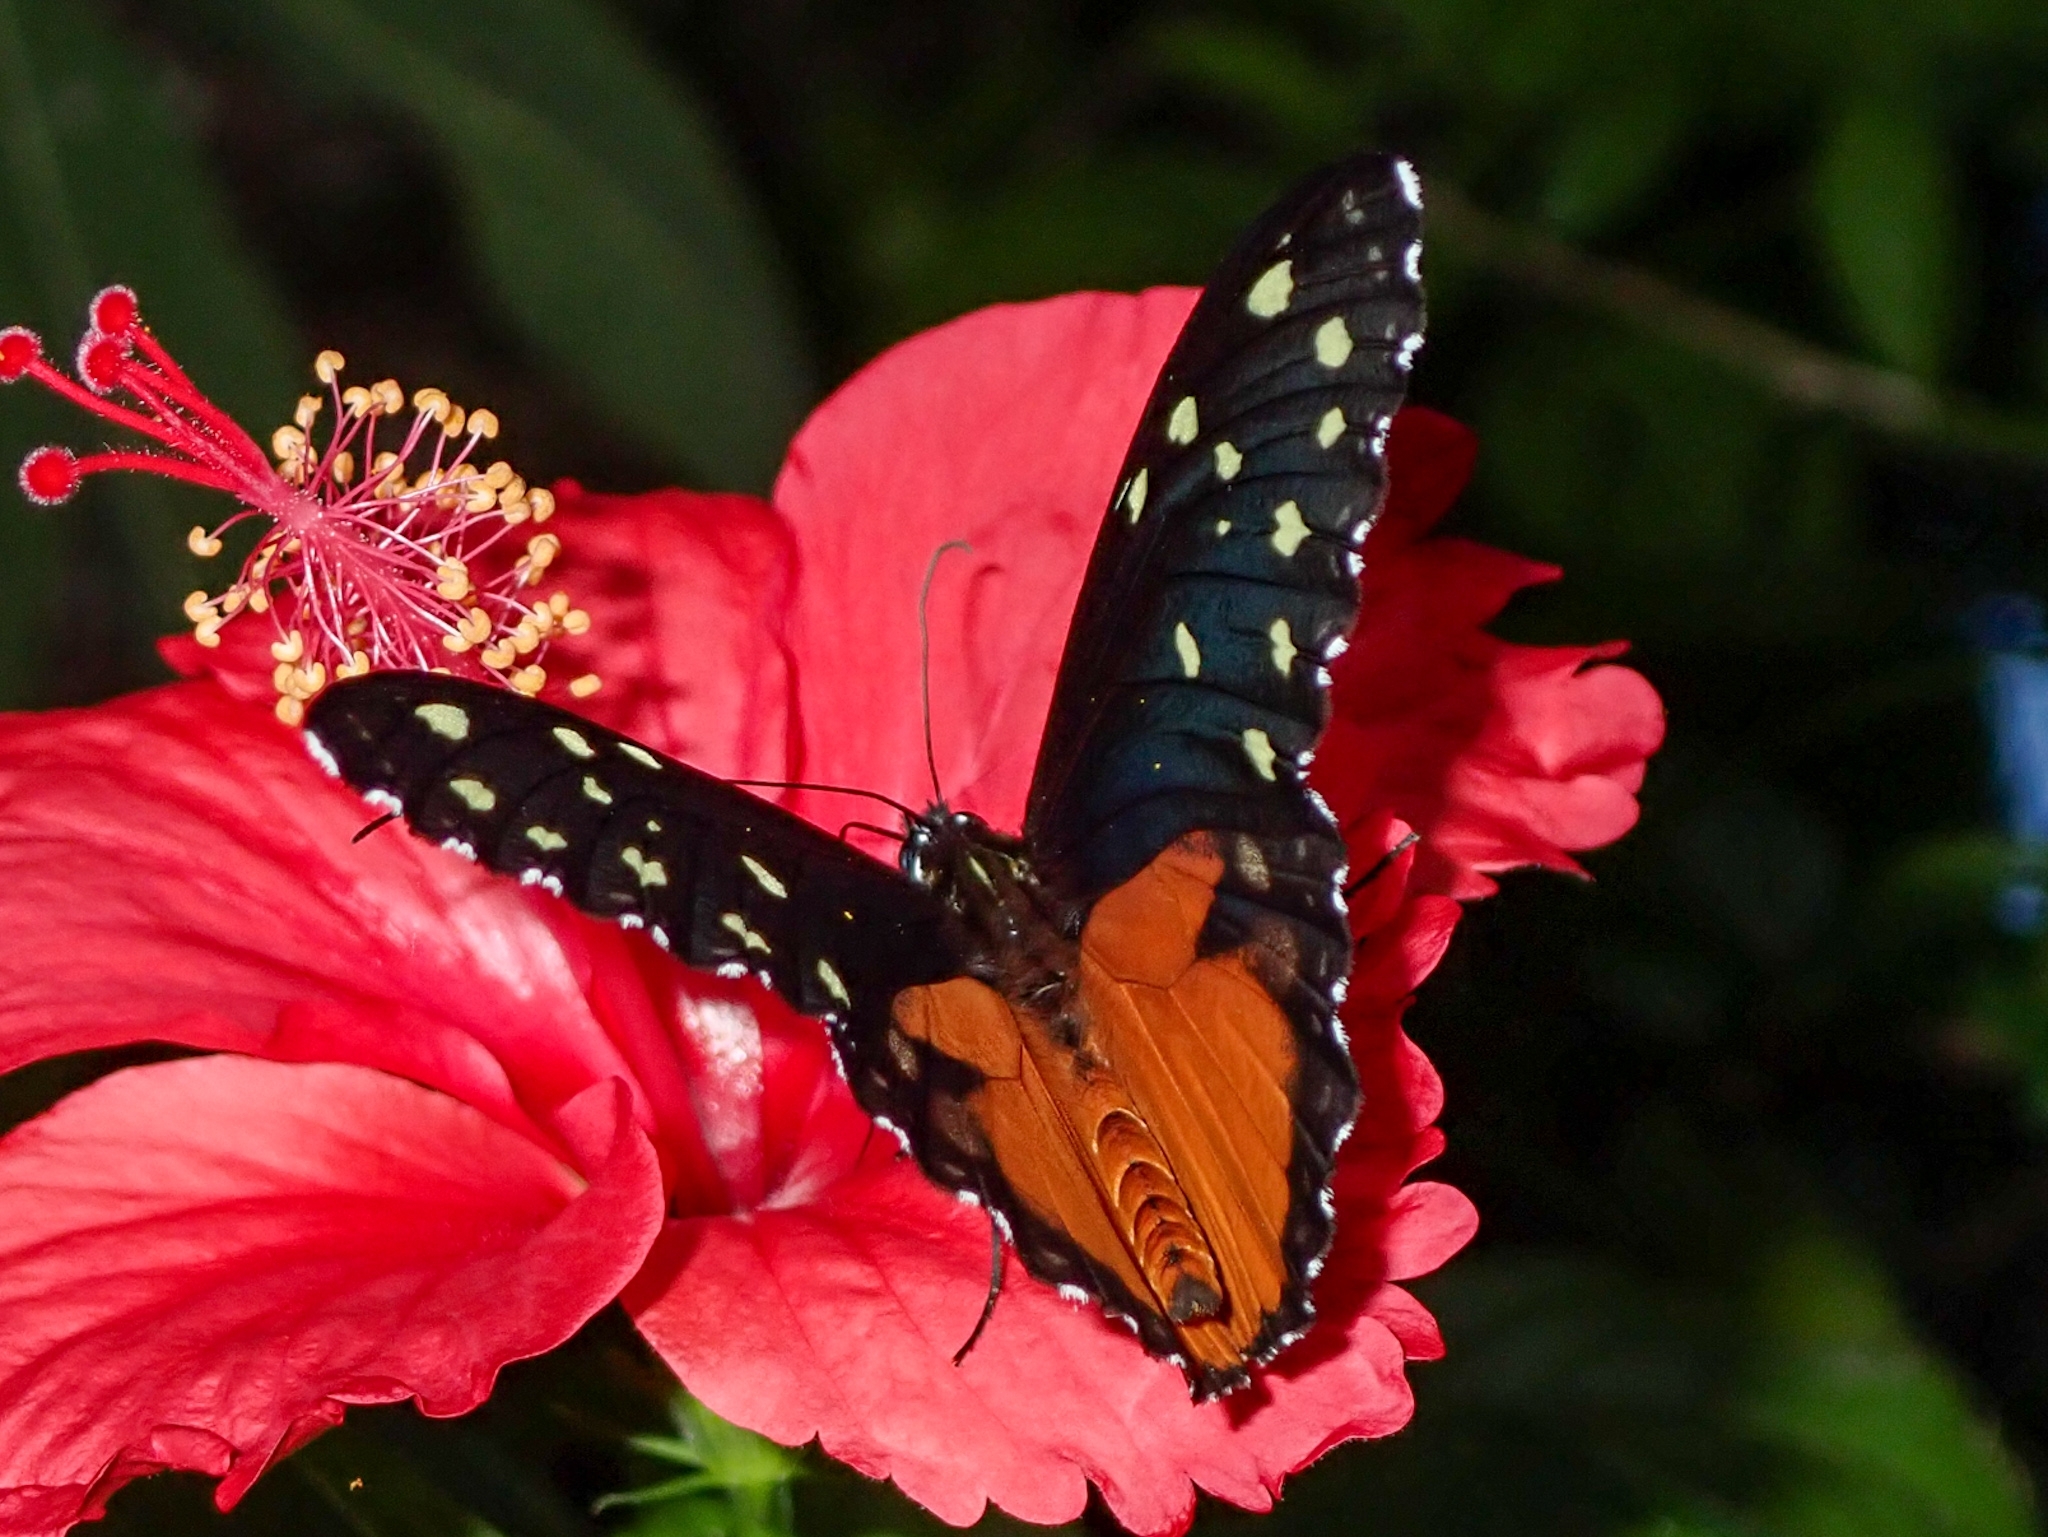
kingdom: Animalia
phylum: Arthropoda
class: Insecta
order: Lepidoptera
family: Nymphalidae
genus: Tithorea
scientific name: Tithorea tarricina
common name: Cream-spotted tigerwing
